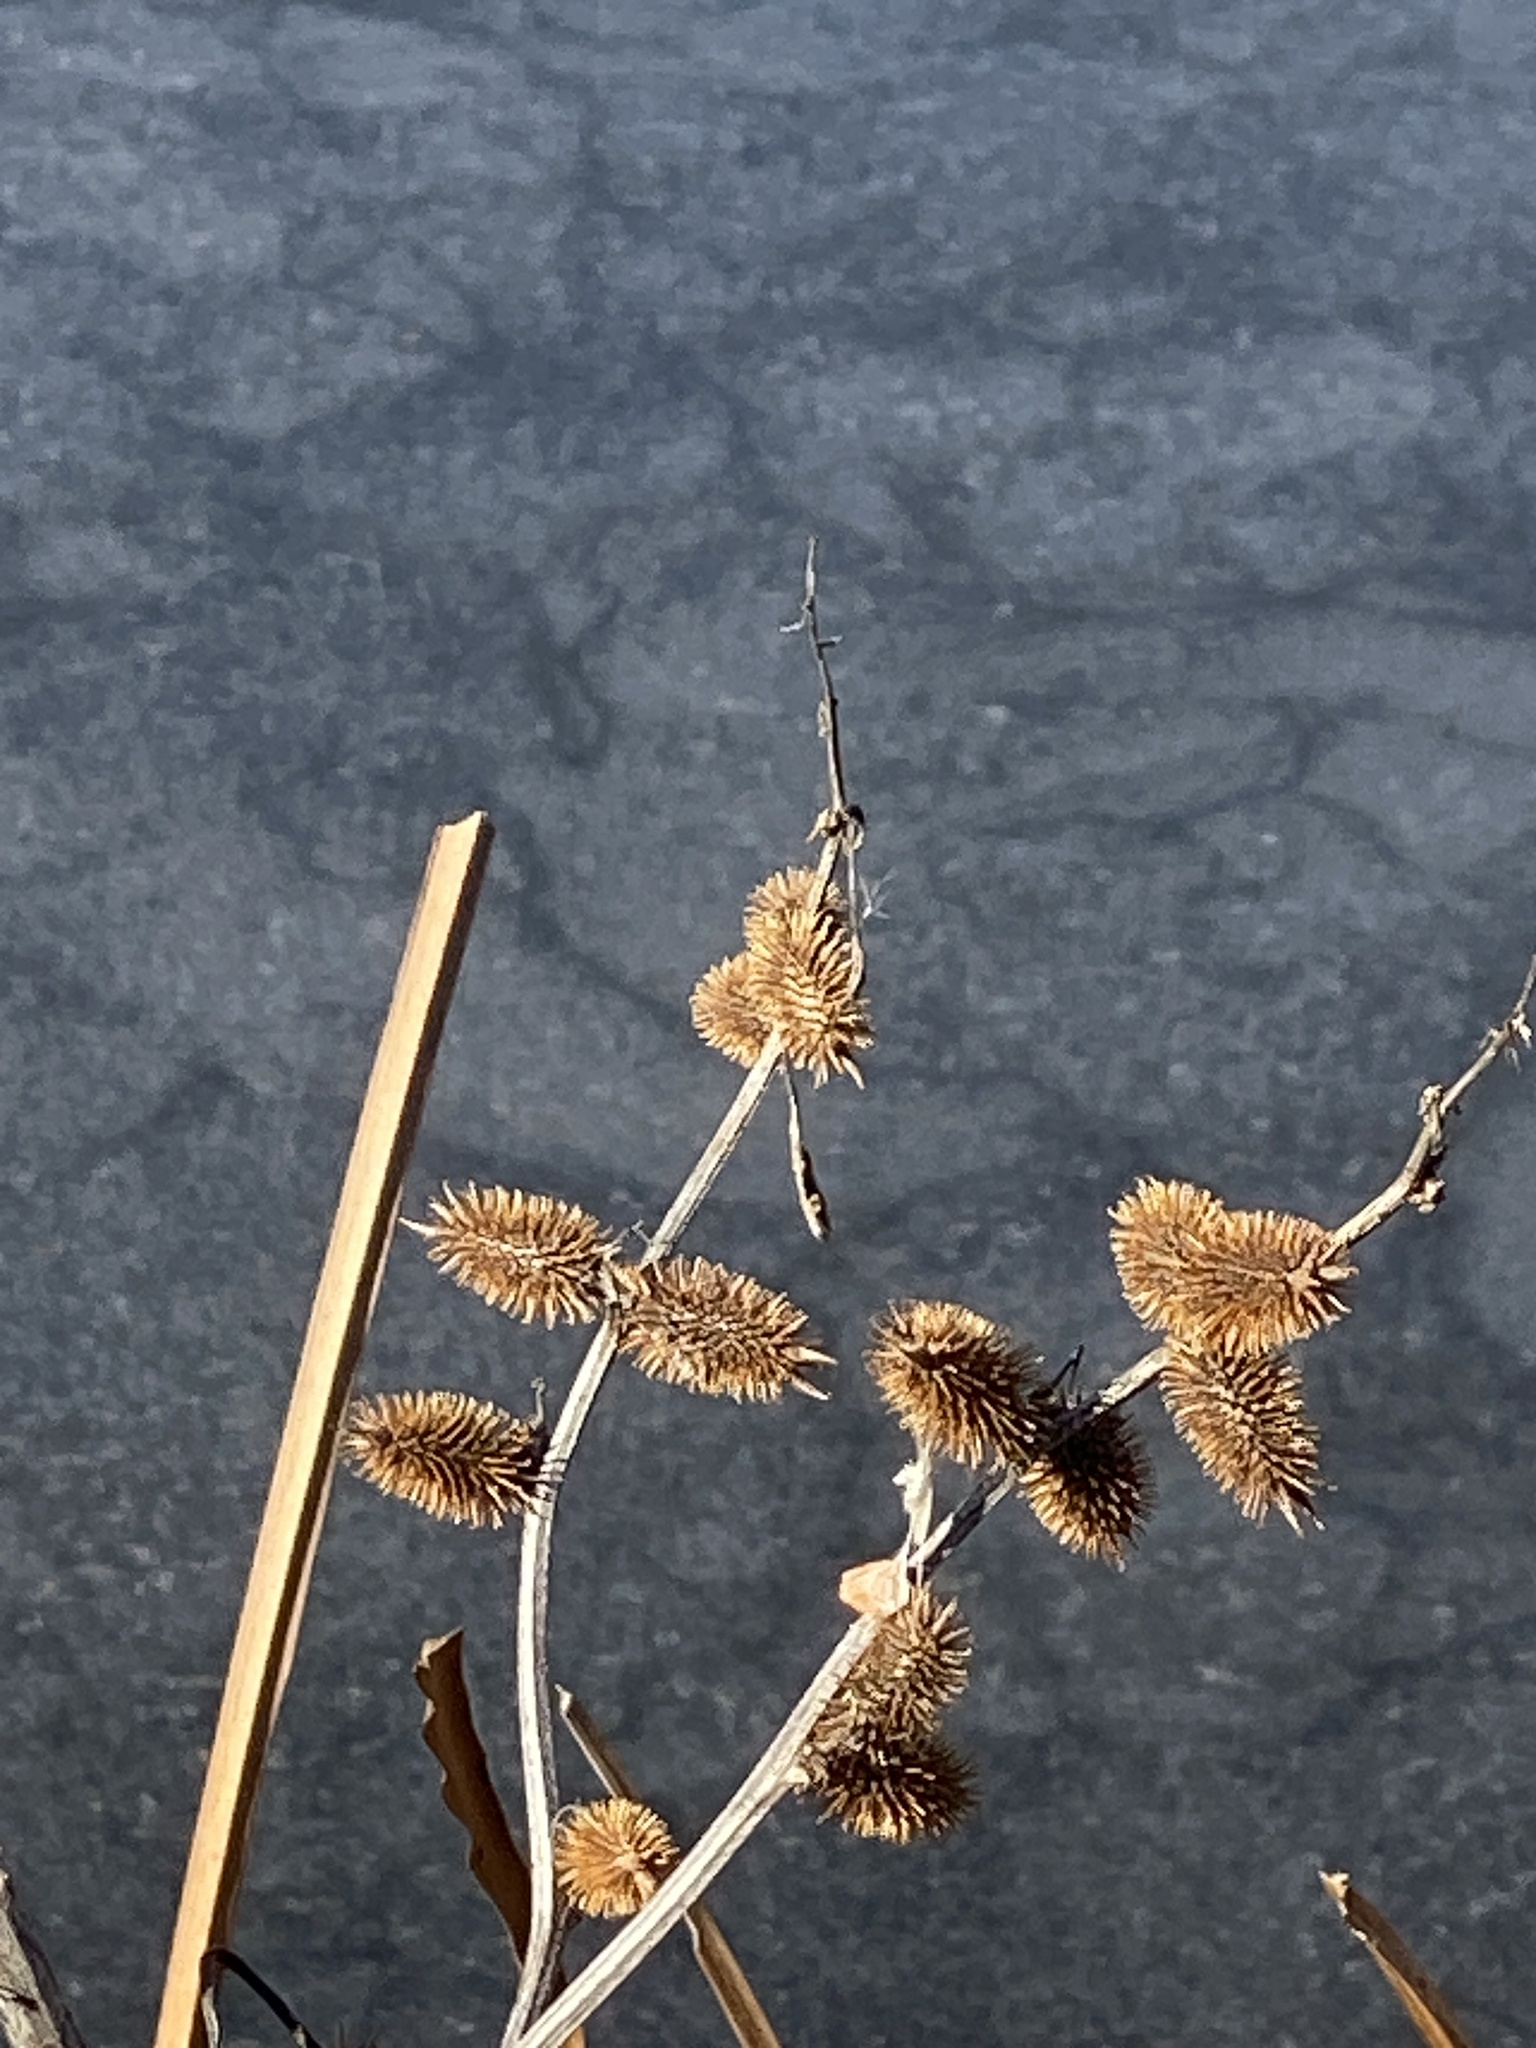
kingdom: Plantae
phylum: Tracheophyta
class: Magnoliopsida
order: Asterales
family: Asteraceae
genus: Xanthium
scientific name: Xanthium strumarium
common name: Rough cocklebur
